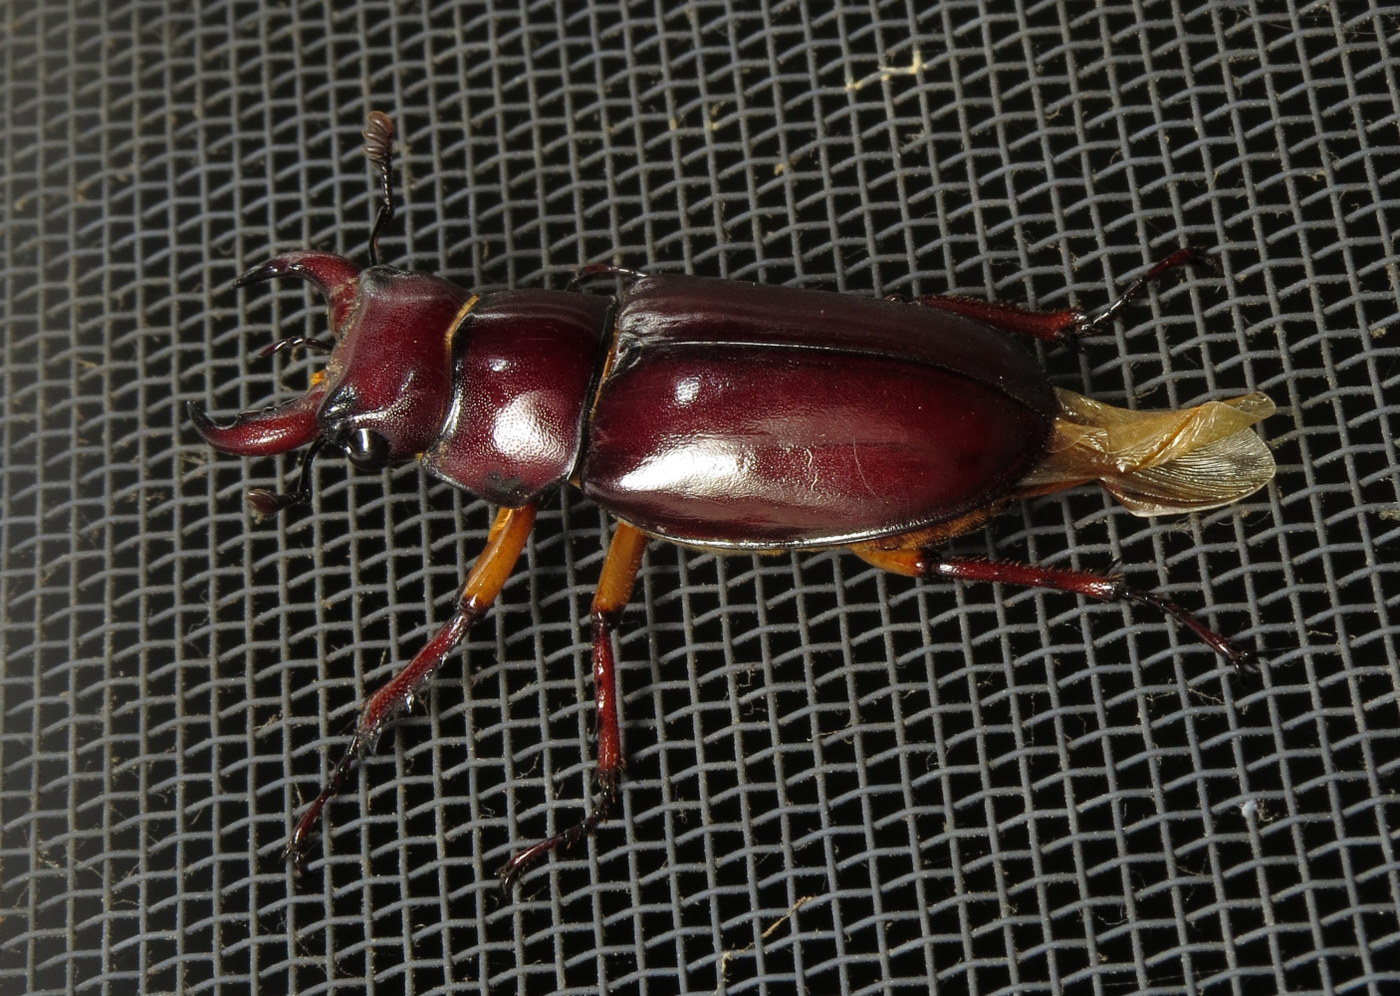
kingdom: Animalia
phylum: Arthropoda
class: Insecta
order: Coleoptera
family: Lucanidae
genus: Lucanus
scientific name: Lucanus capreolus
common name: Stag beetle
